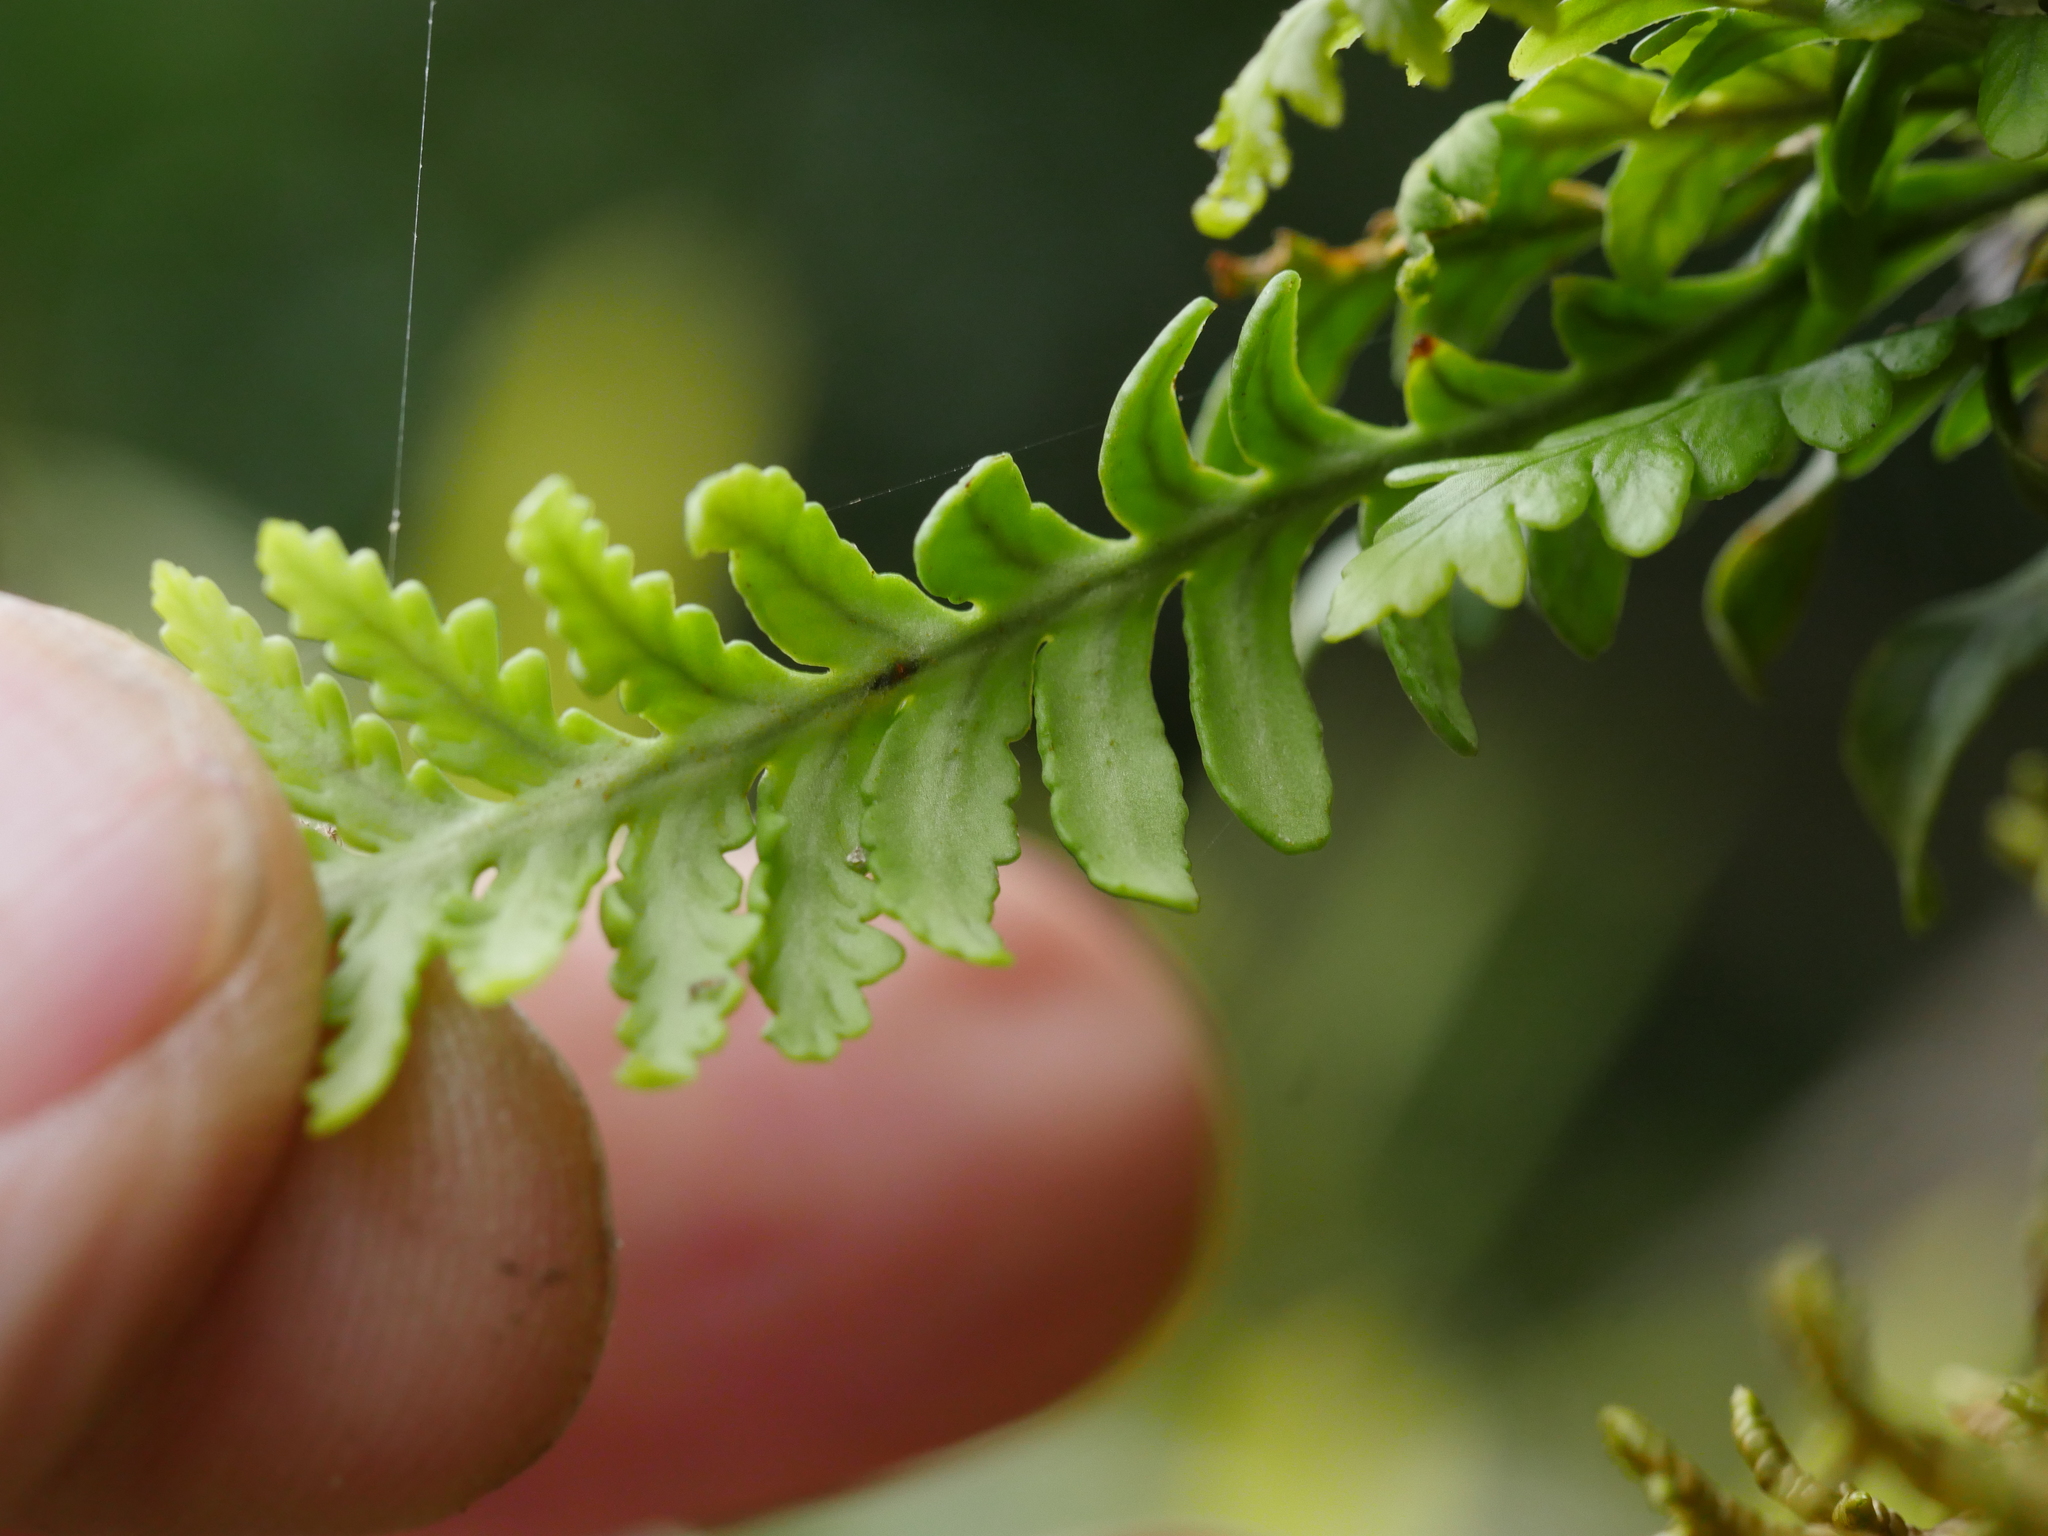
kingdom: Plantae
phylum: Tracheophyta
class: Polypodiopsida
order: Polypodiales
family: Polypodiaceae
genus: Notogrammitis
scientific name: Notogrammitis heterophylla
